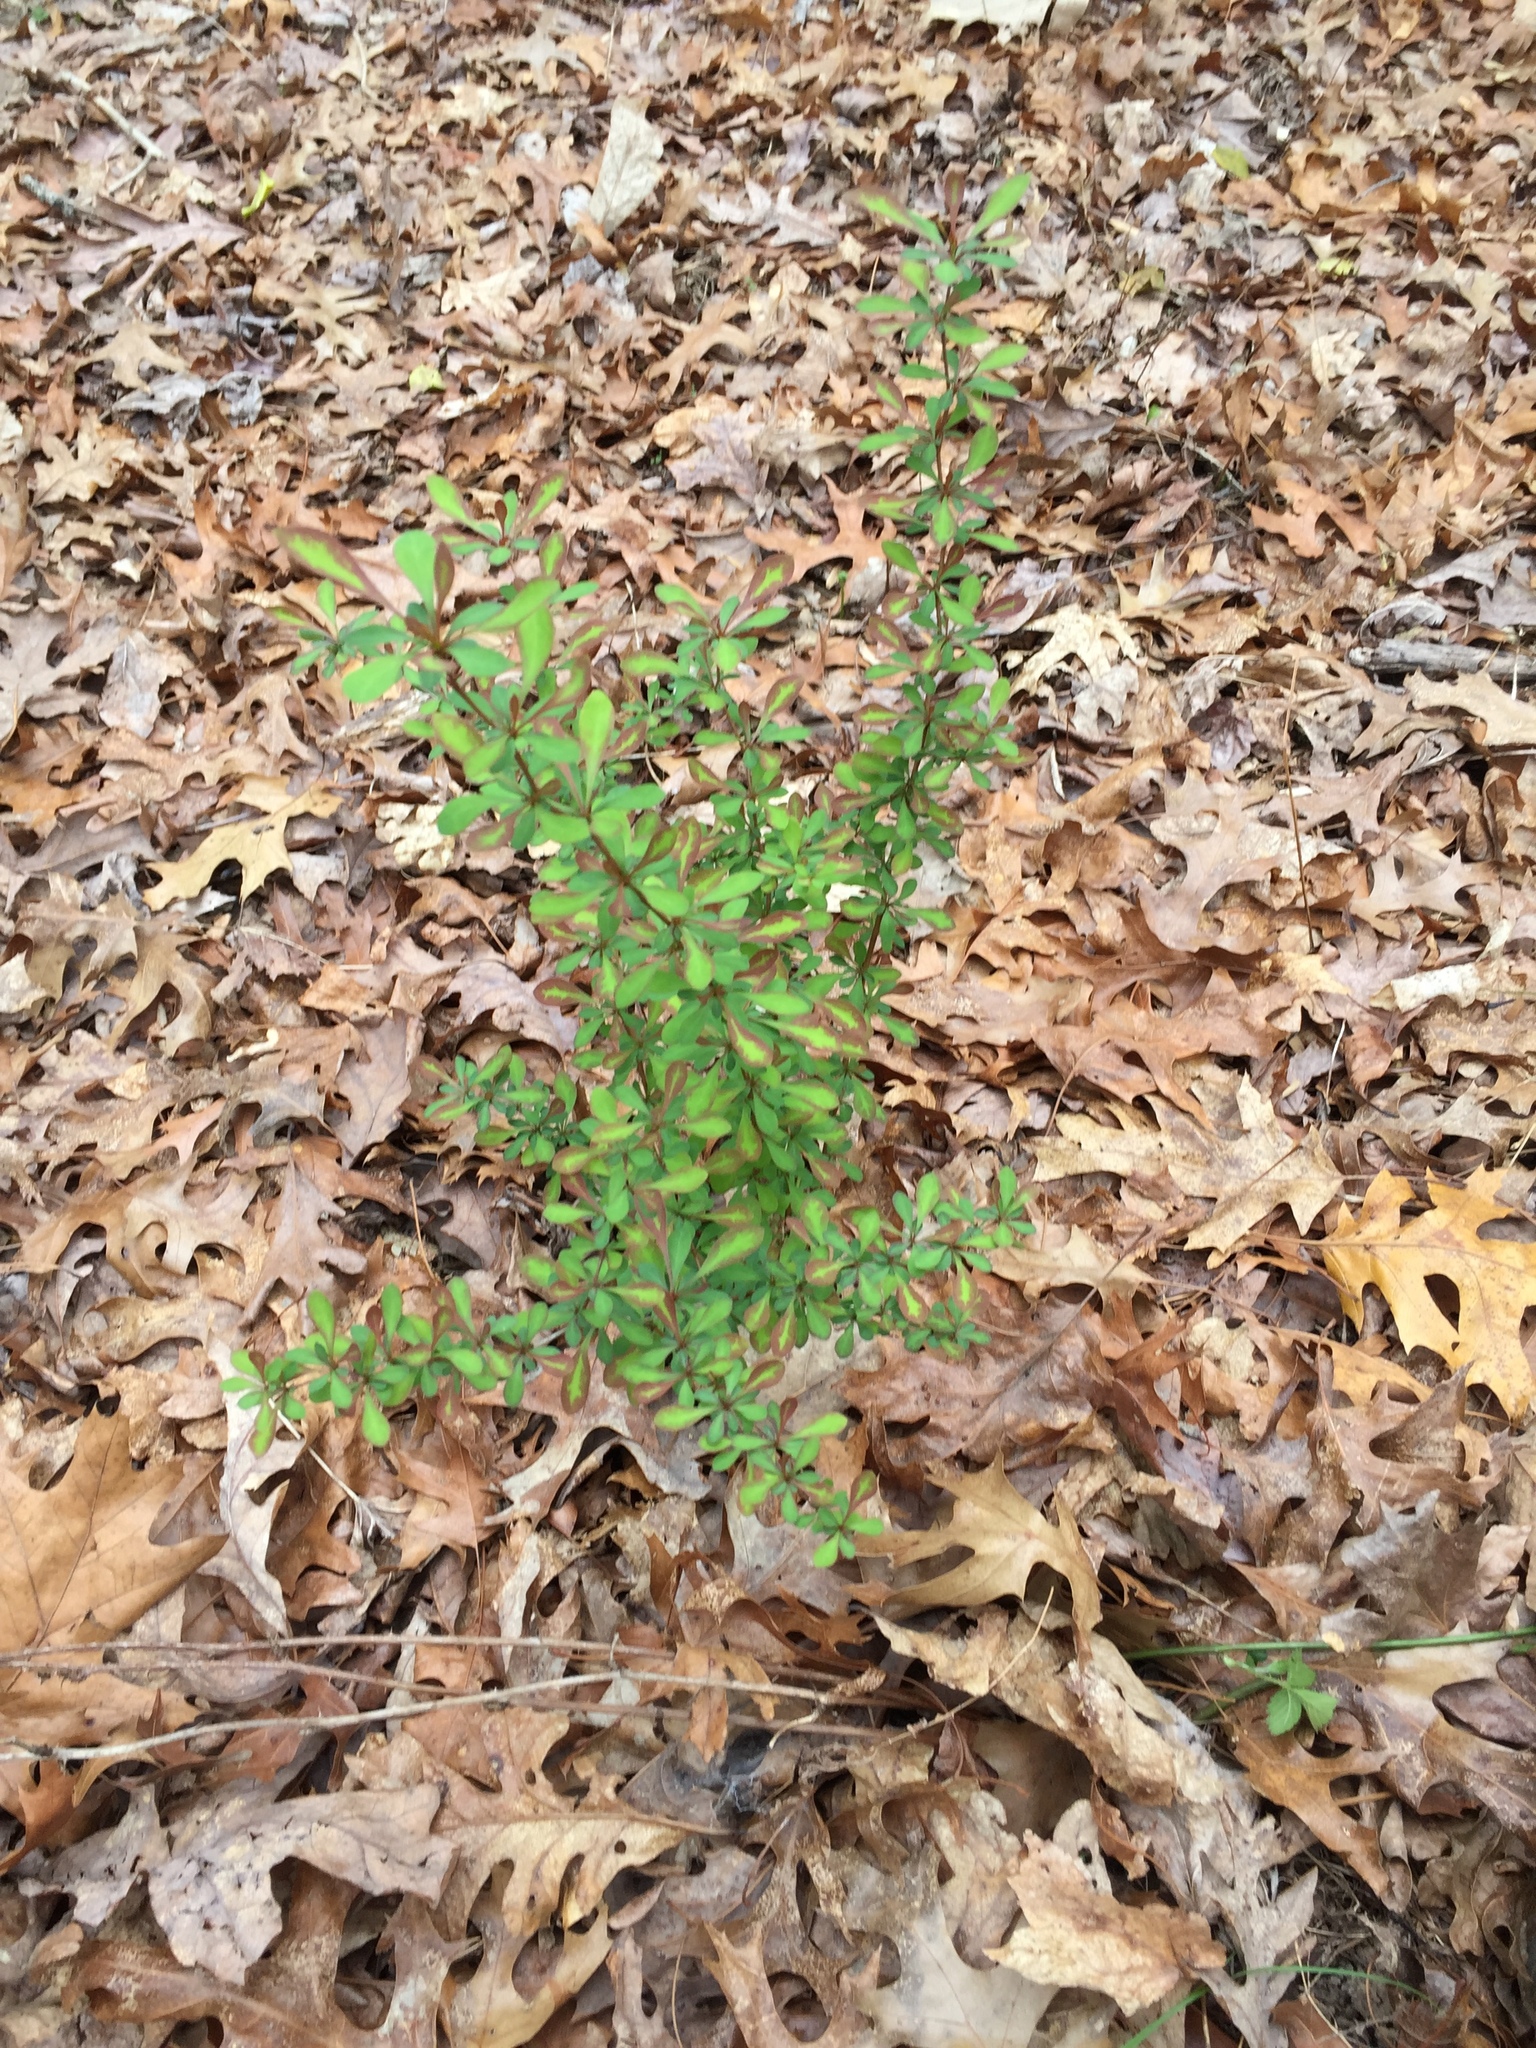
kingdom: Plantae
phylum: Tracheophyta
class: Magnoliopsida
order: Ranunculales
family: Berberidaceae
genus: Berberis
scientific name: Berberis thunbergii
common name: Japanese barberry
